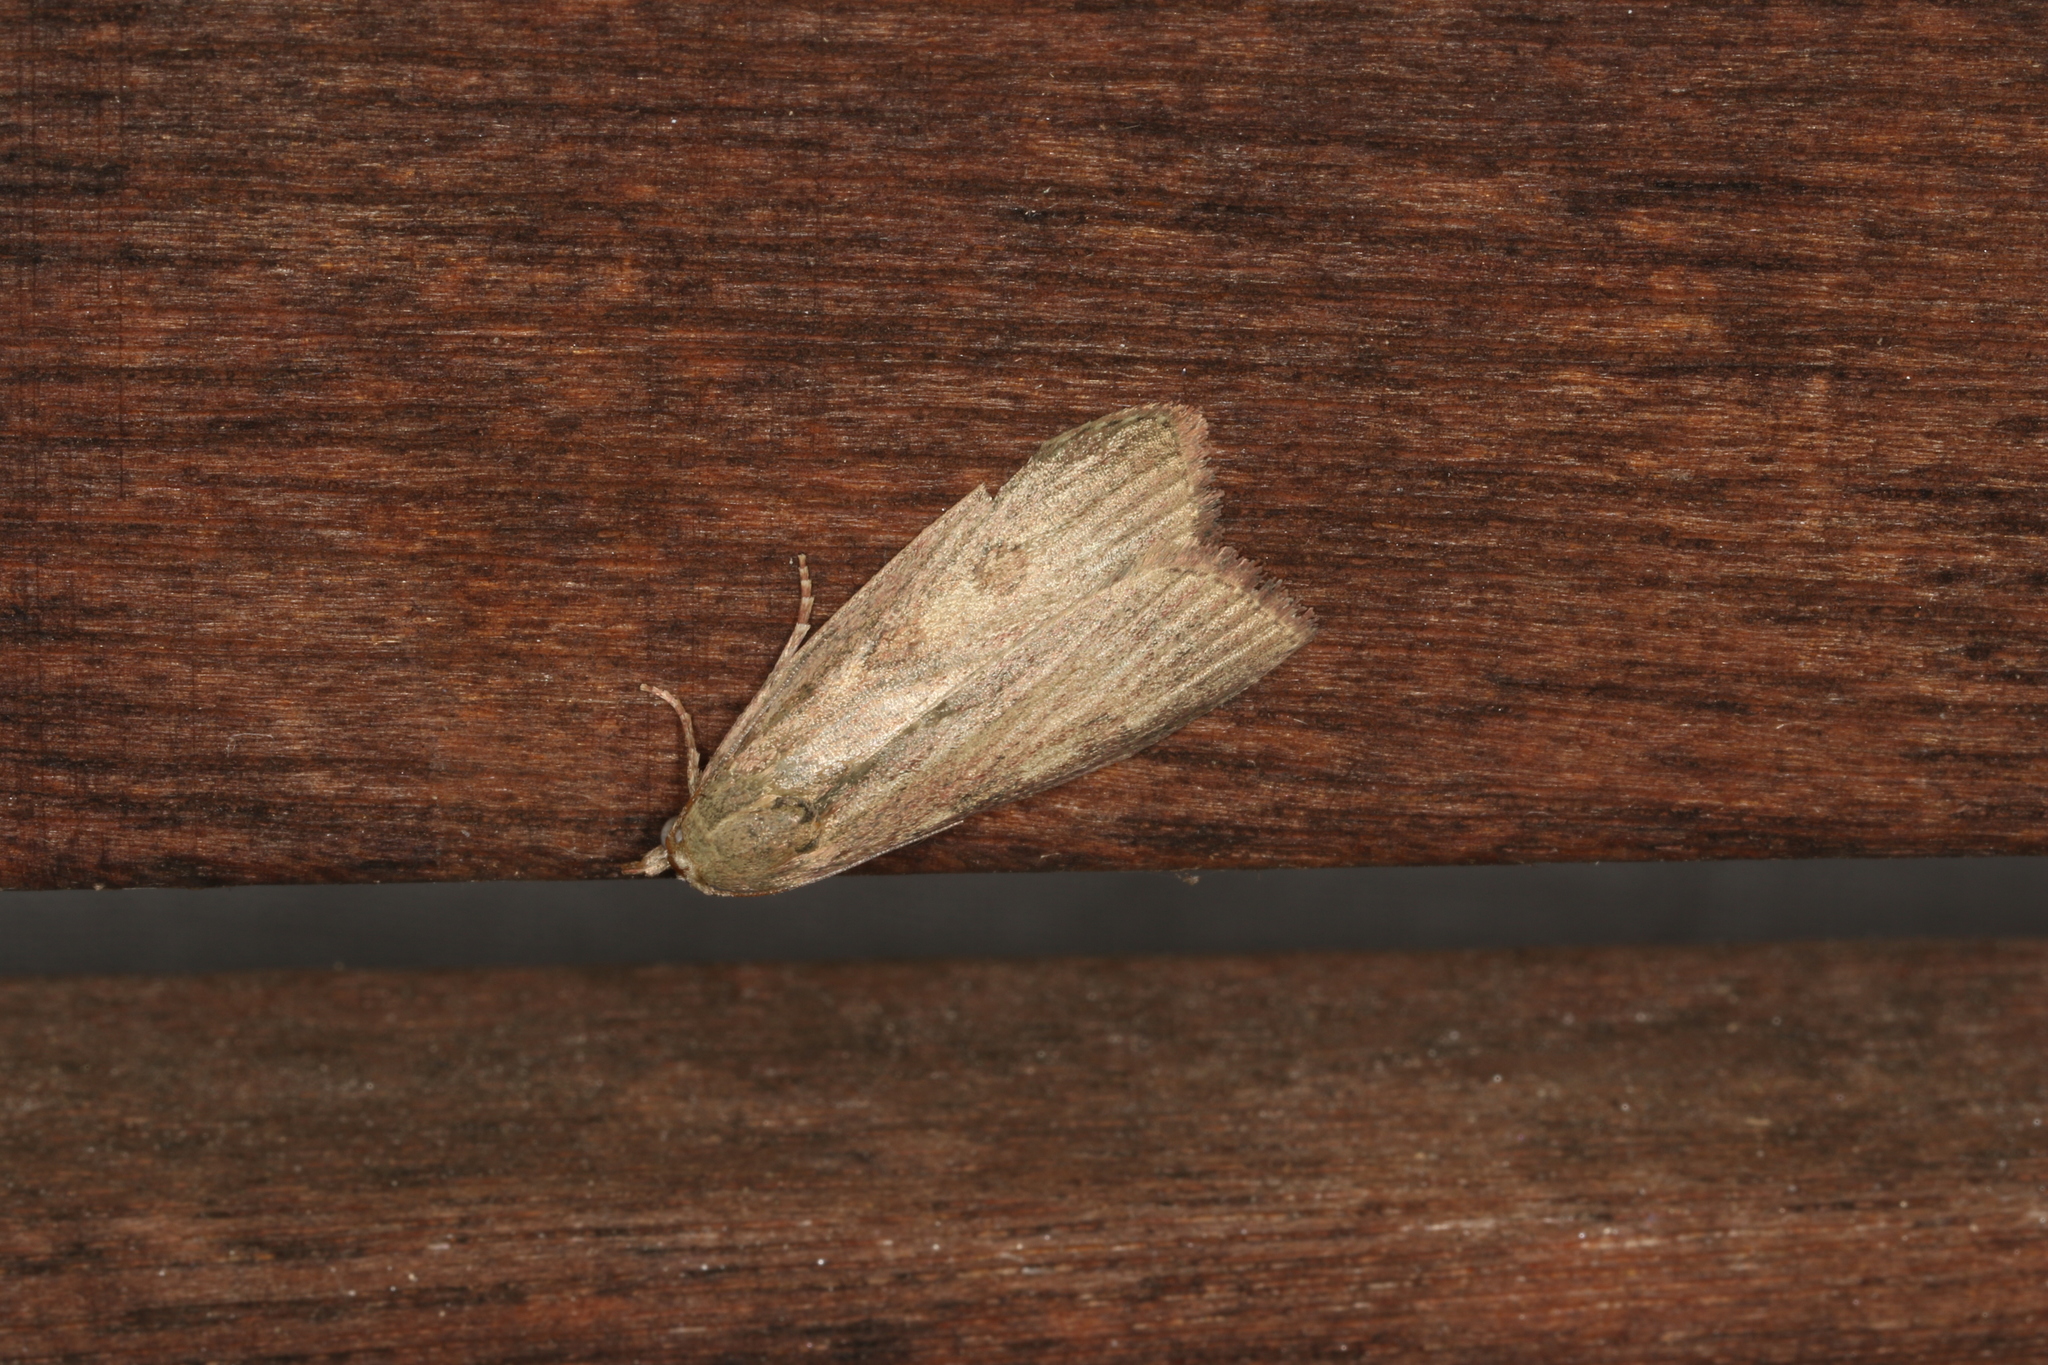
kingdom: Animalia
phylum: Arthropoda
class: Insecta
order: Lepidoptera
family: Pyralidae
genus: Tirathaba
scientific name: Tirathaba parasiticus
